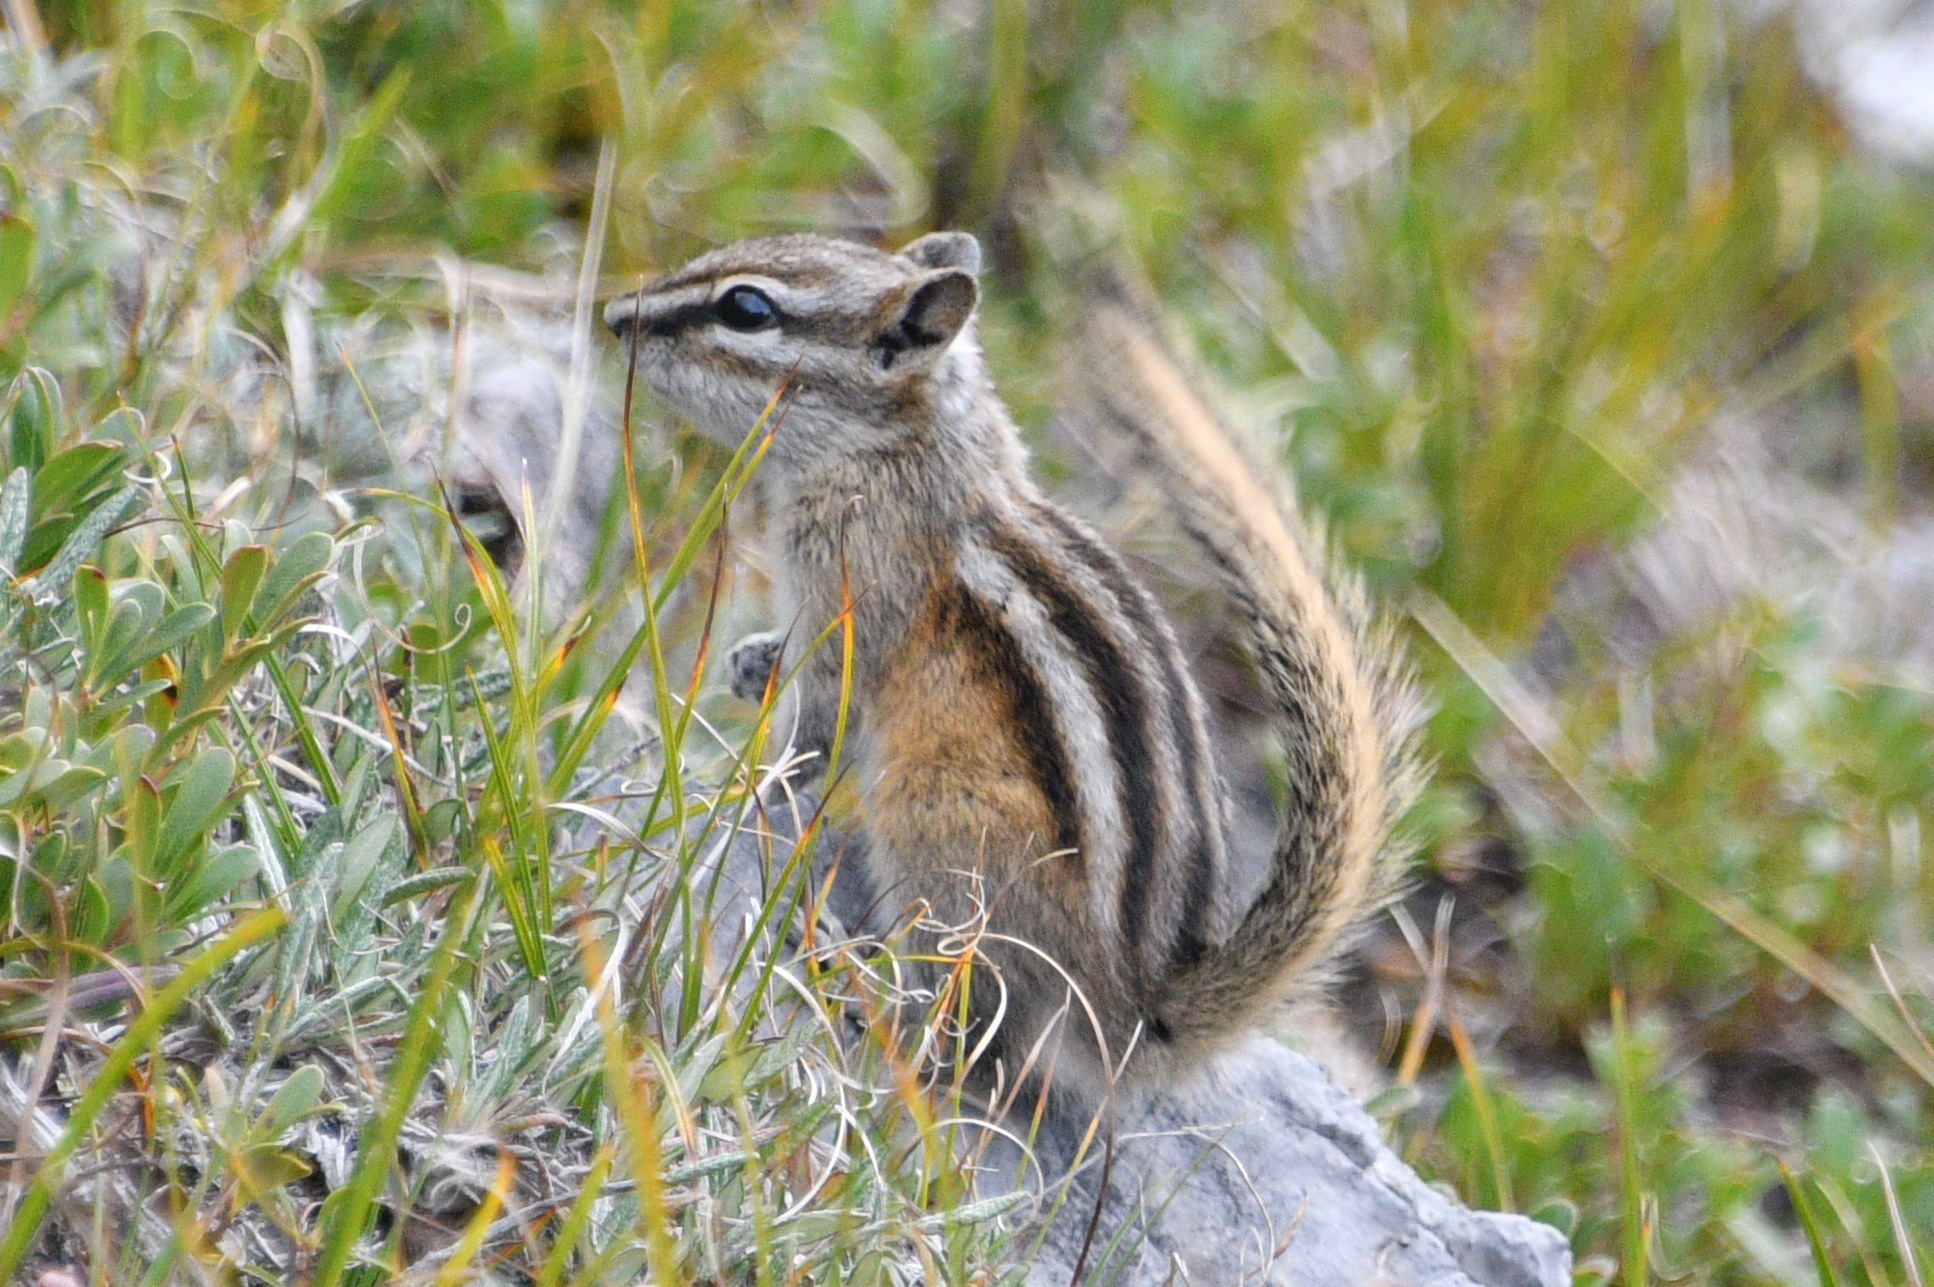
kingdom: Animalia
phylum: Chordata
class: Mammalia
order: Rodentia
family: Sciuridae
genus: Tamias
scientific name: Tamias minimus
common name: Least chipmunk
